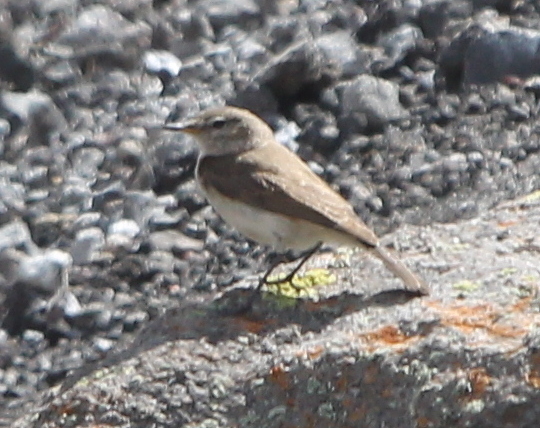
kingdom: Animalia
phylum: Chordata
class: Aves
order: Passeriformes
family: Tyrannidae
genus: Muscisaxicola
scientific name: Muscisaxicola maculirostris
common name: Spot-billed ground tyrant
